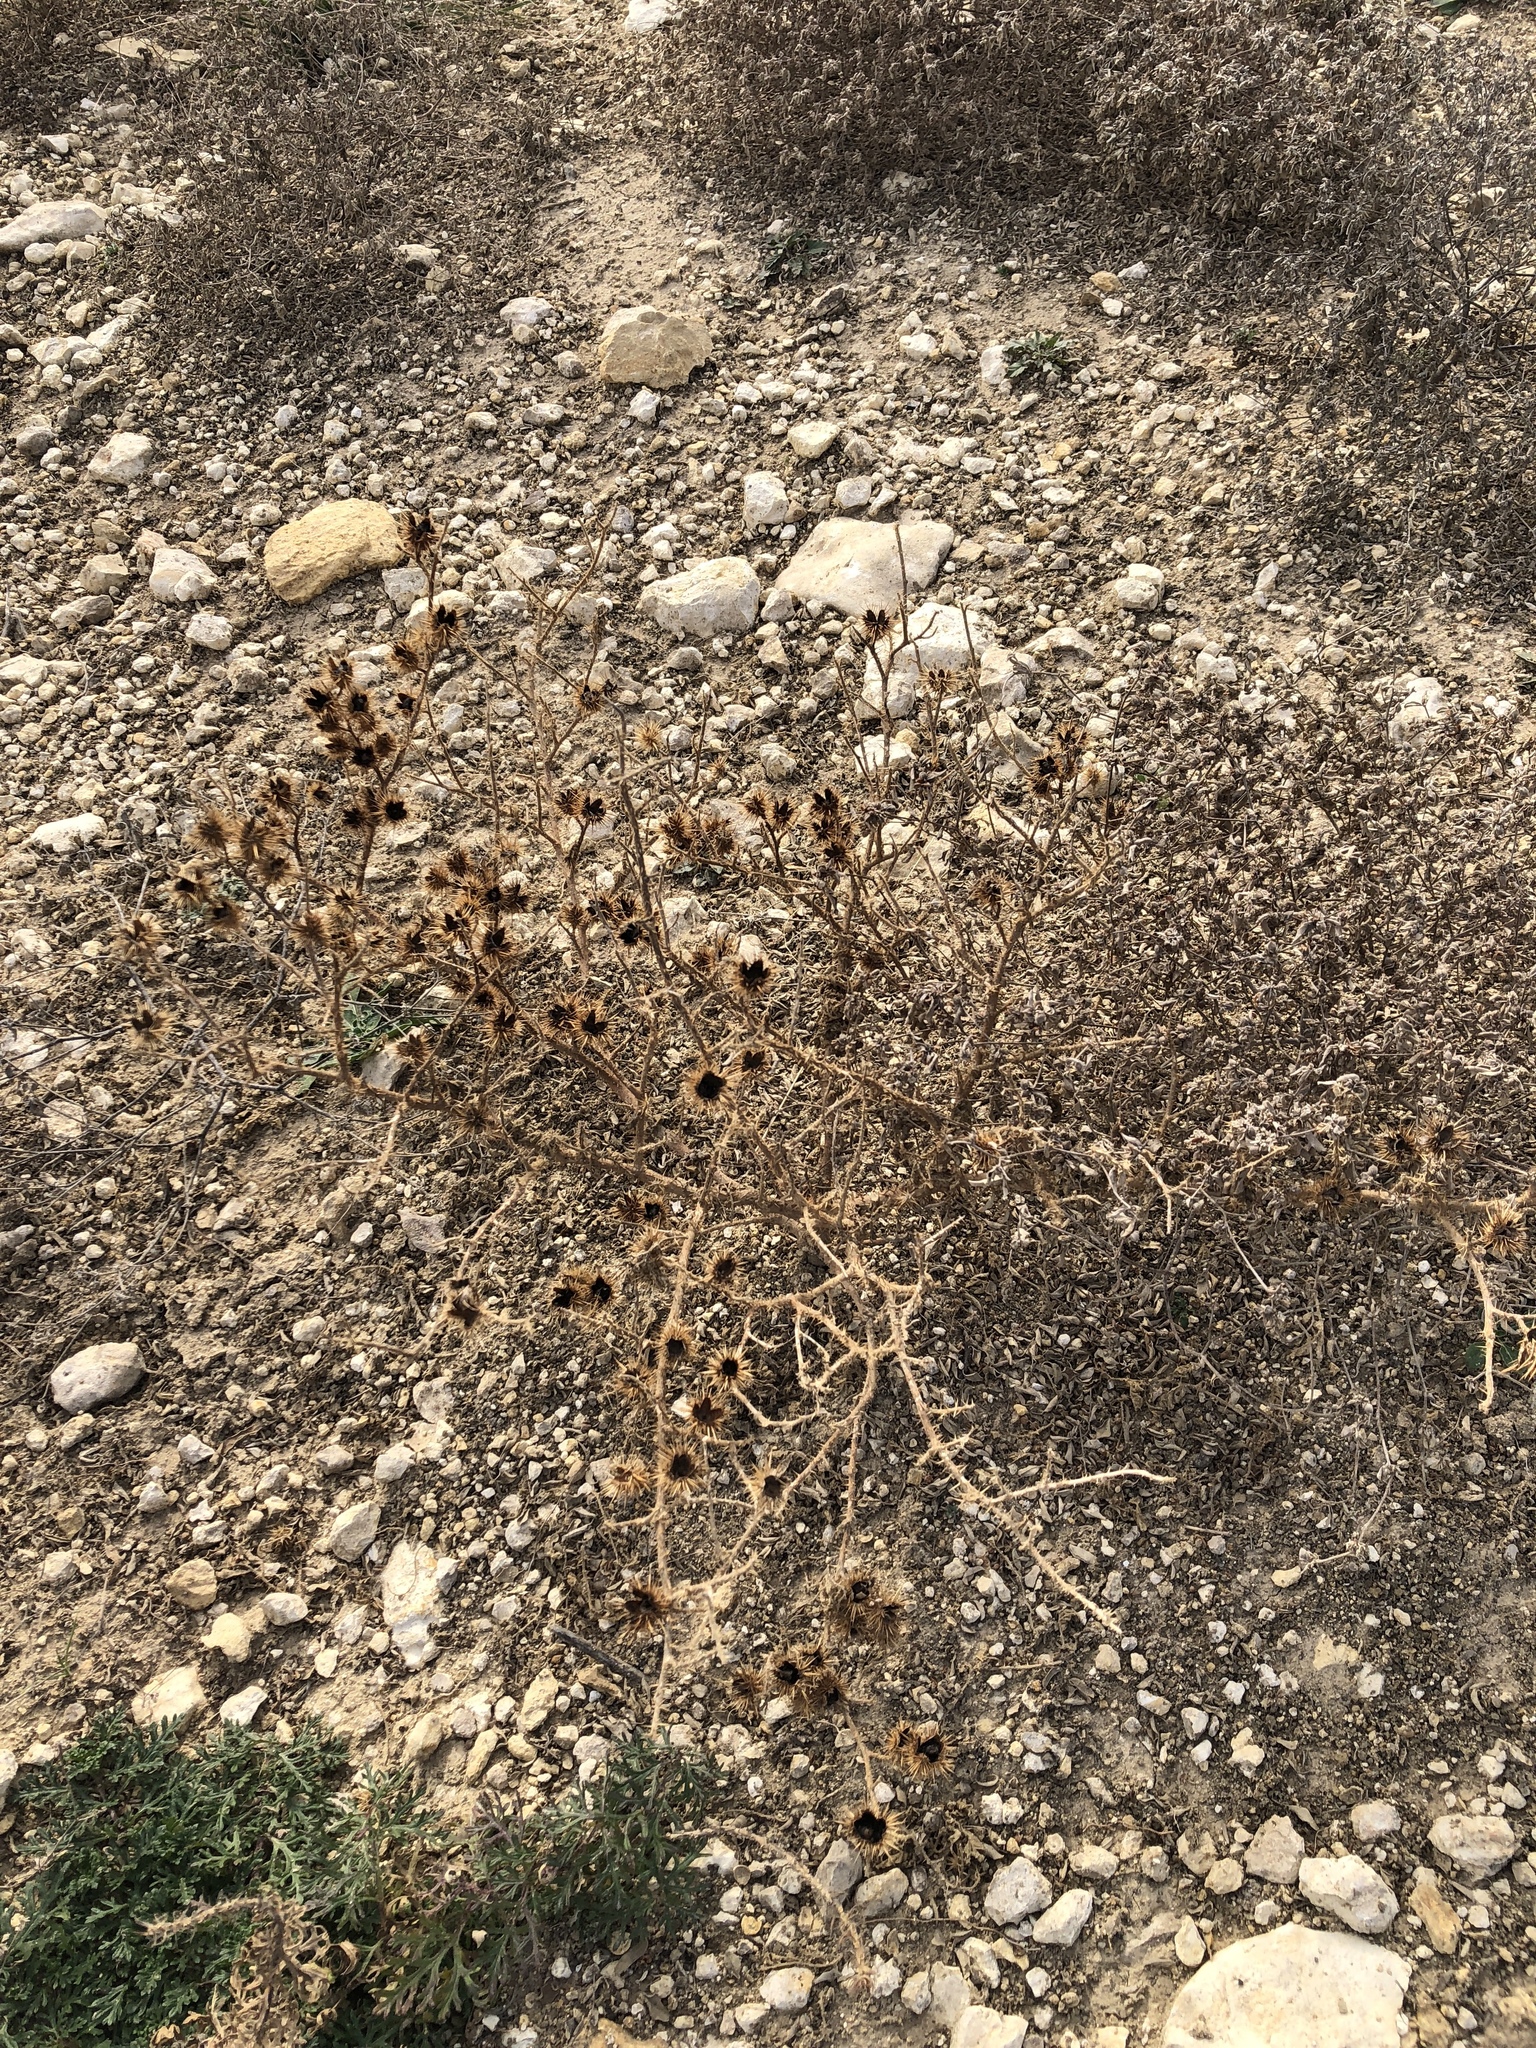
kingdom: Plantae
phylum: Tracheophyta
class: Magnoliopsida
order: Solanales
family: Solanaceae
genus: Solanum
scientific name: Solanum angustifolium
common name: Buffalobur nightshade
